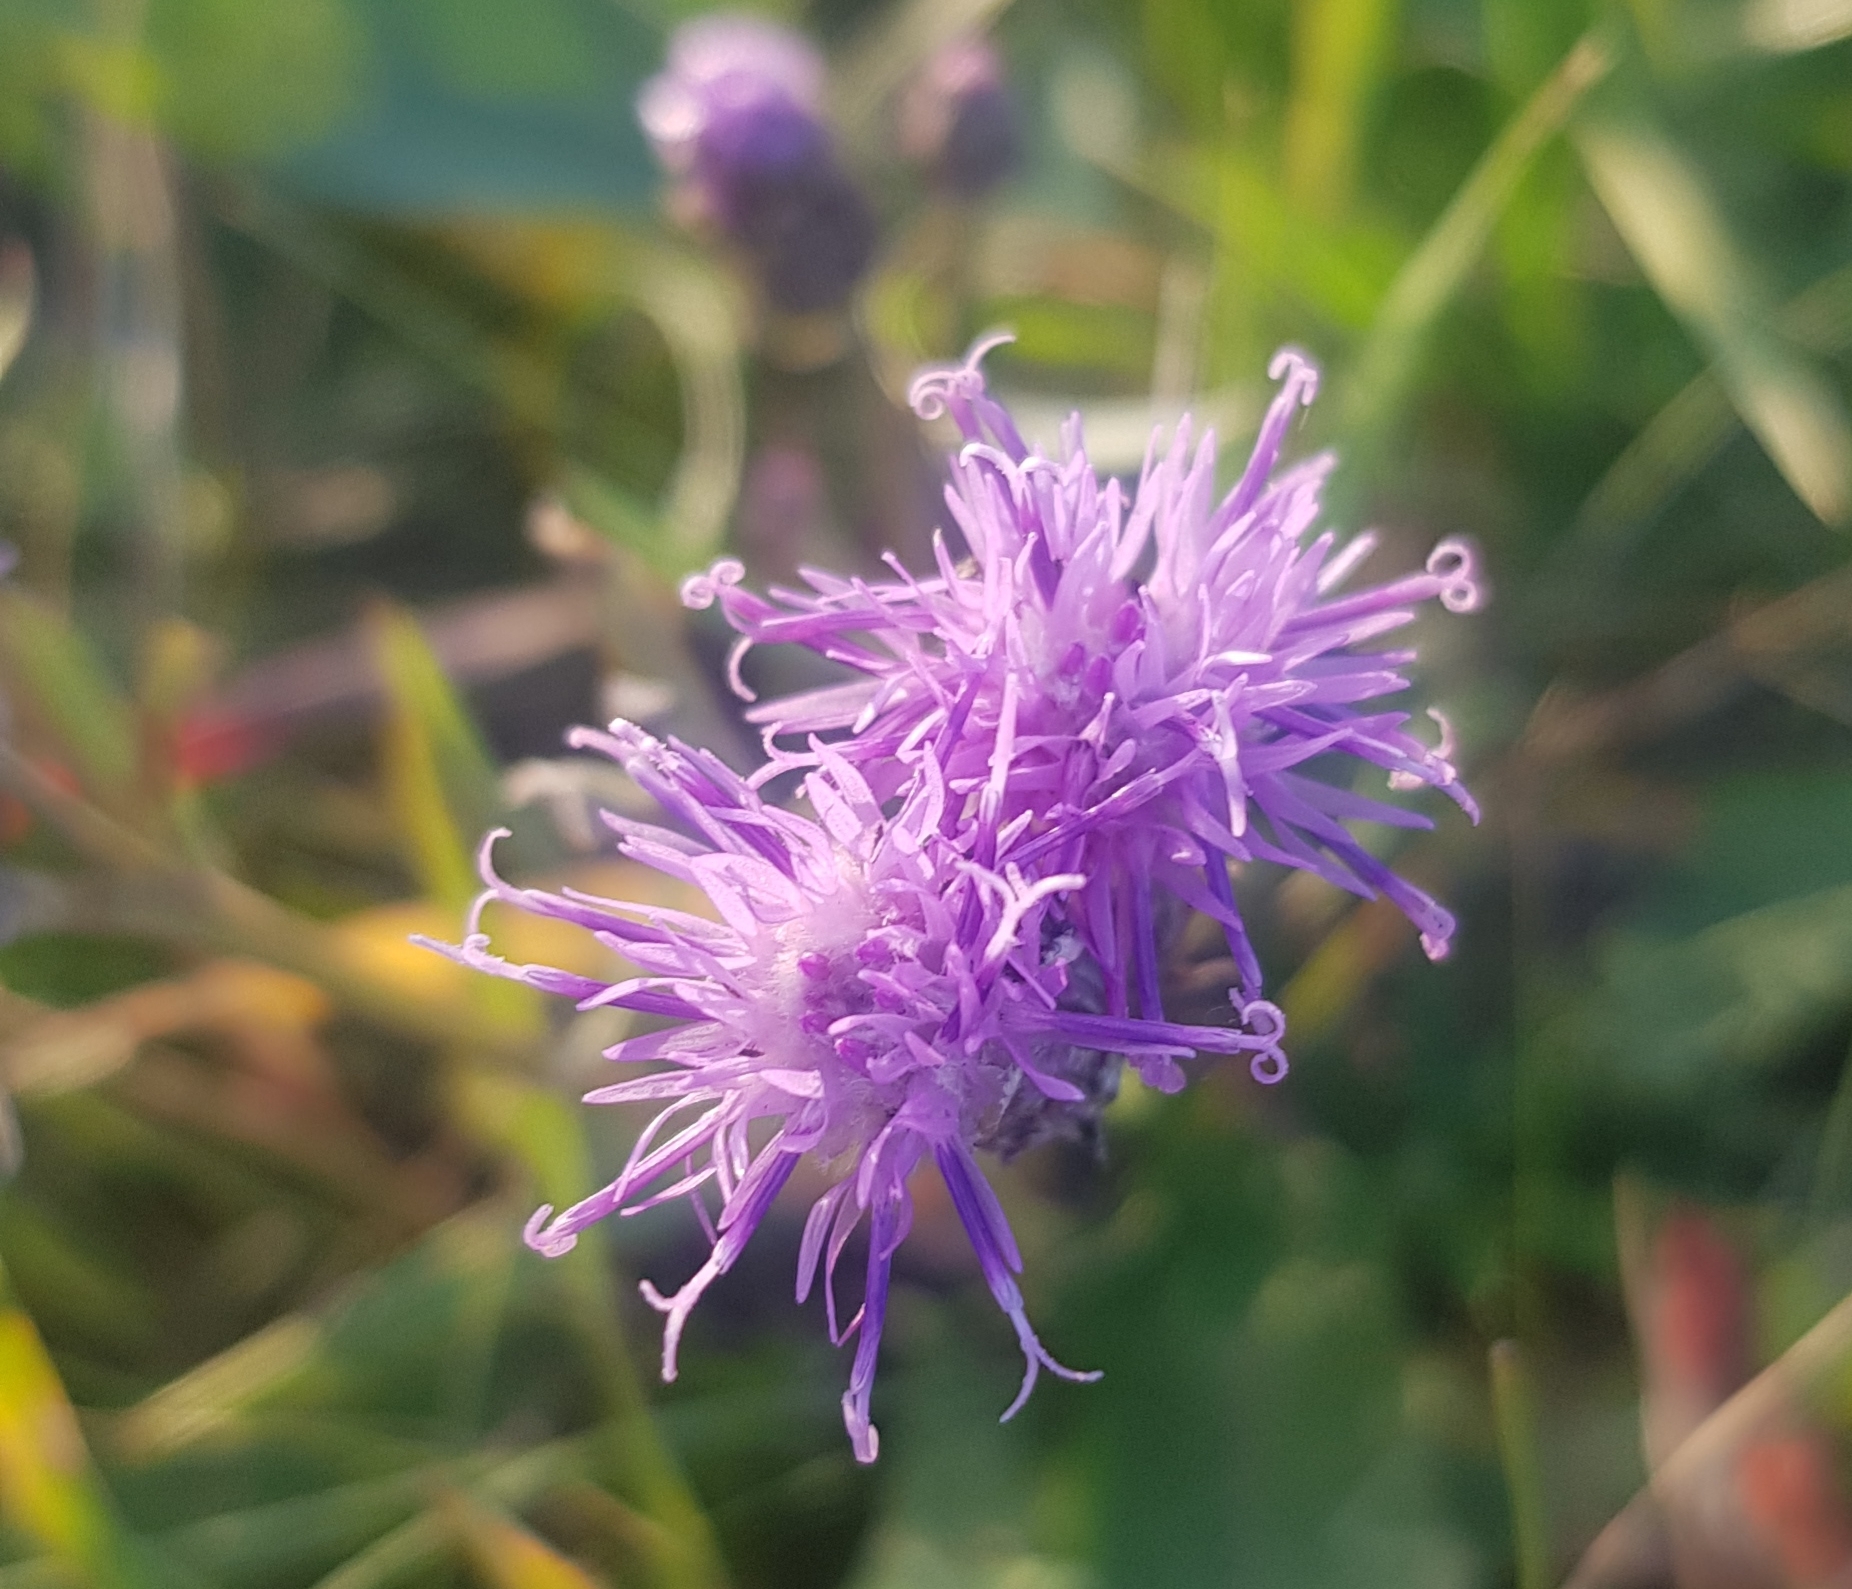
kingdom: Plantae
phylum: Tracheophyta
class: Magnoliopsida
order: Asterales
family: Asteraceae
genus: Saussurea
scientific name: Saussurea amara
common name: Alberta sawwort
